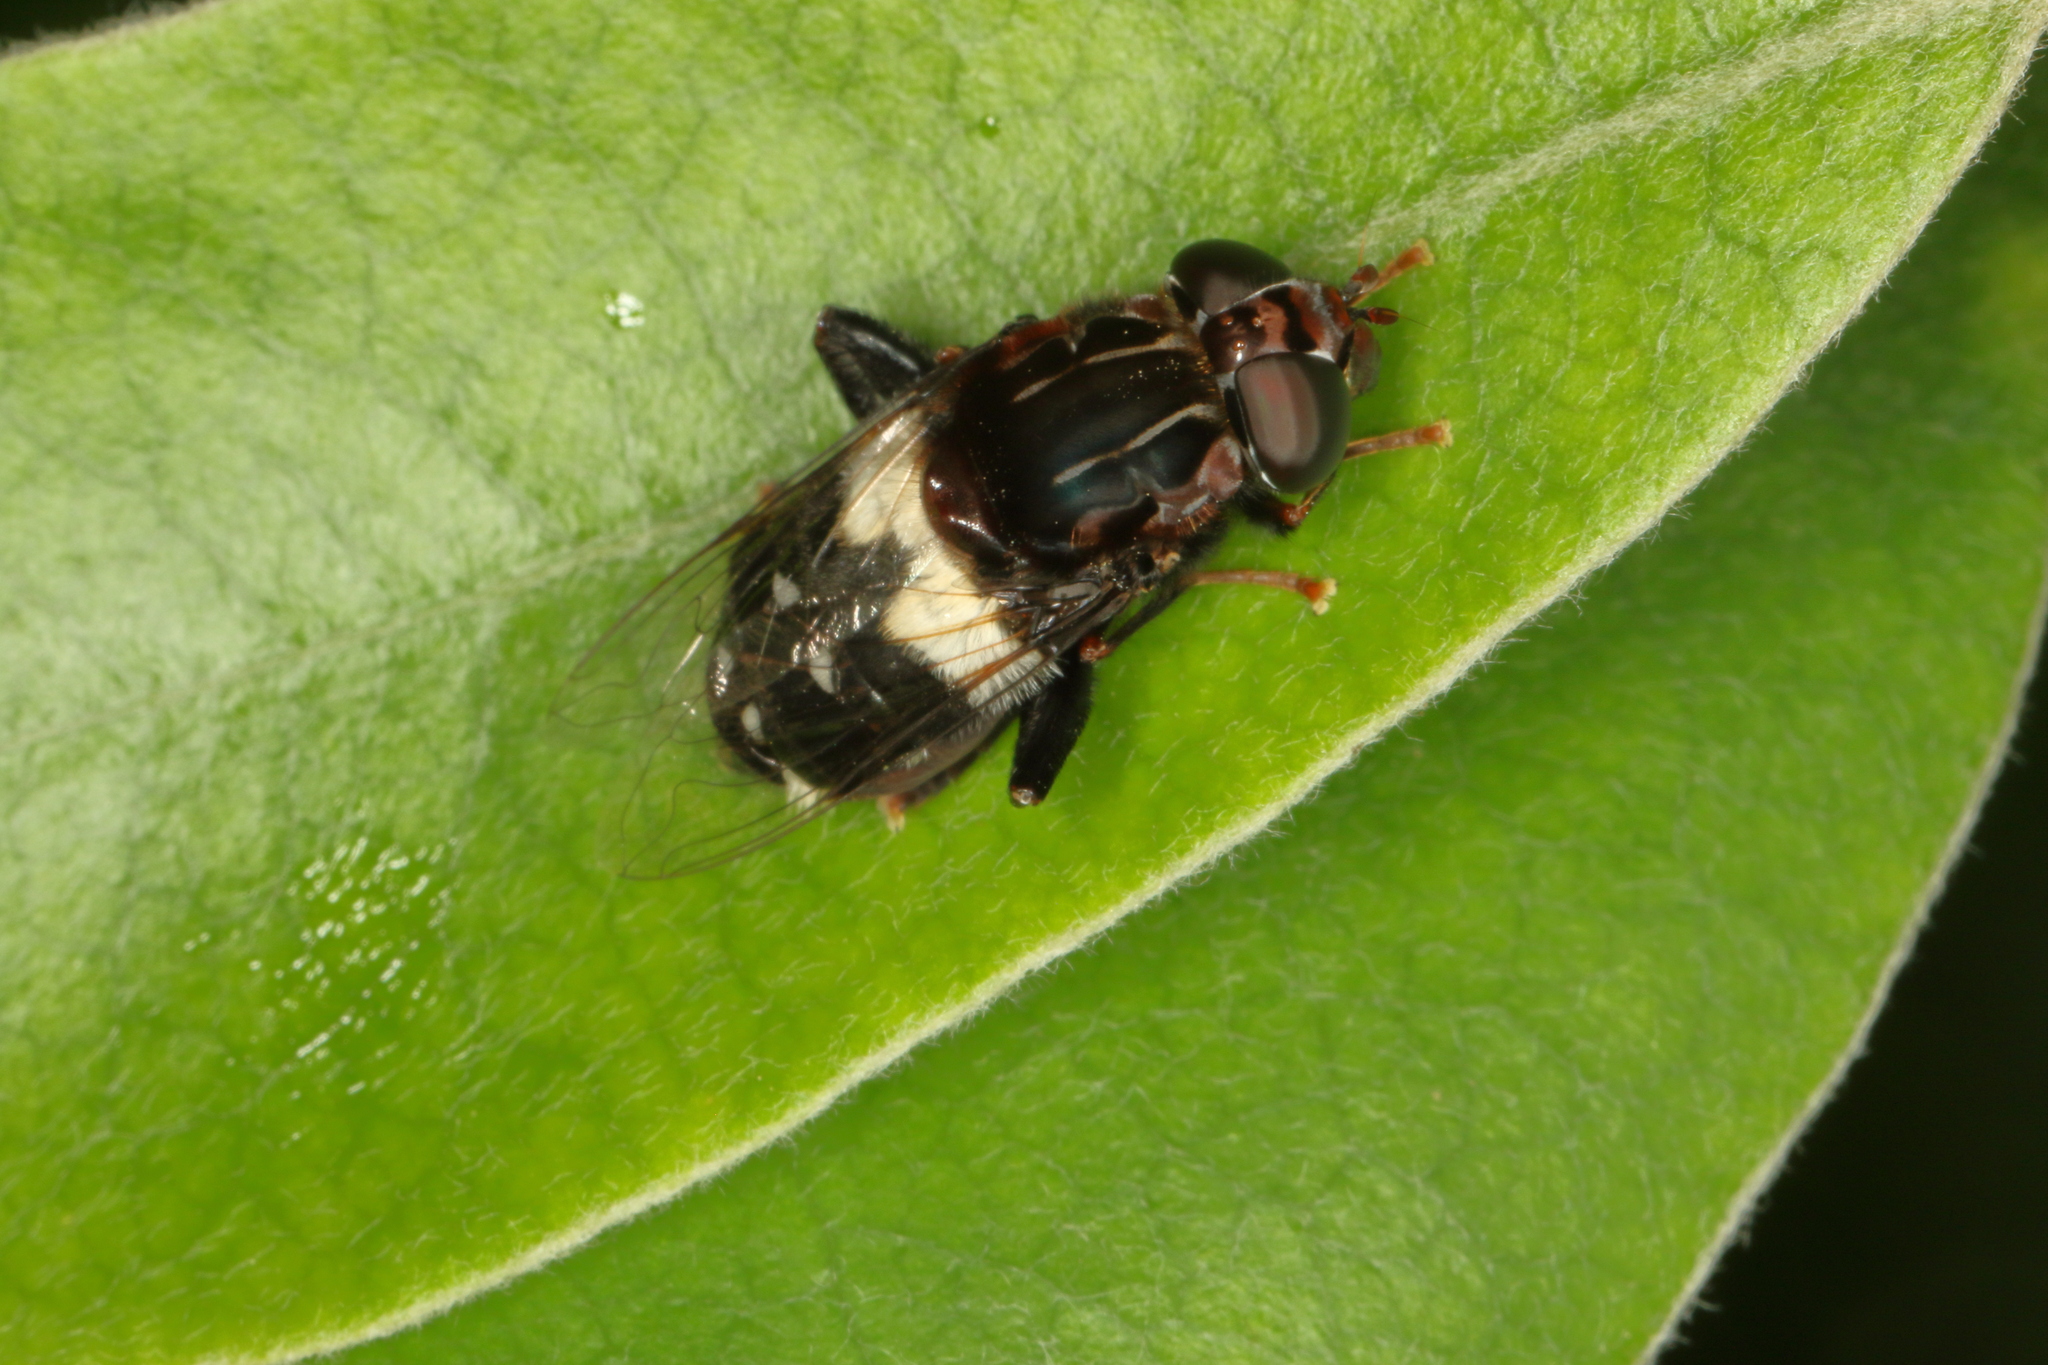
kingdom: Animalia
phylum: Arthropoda
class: Insecta
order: Diptera
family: Syrphidae
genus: Helophilus
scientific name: Helophilus cingulatus
